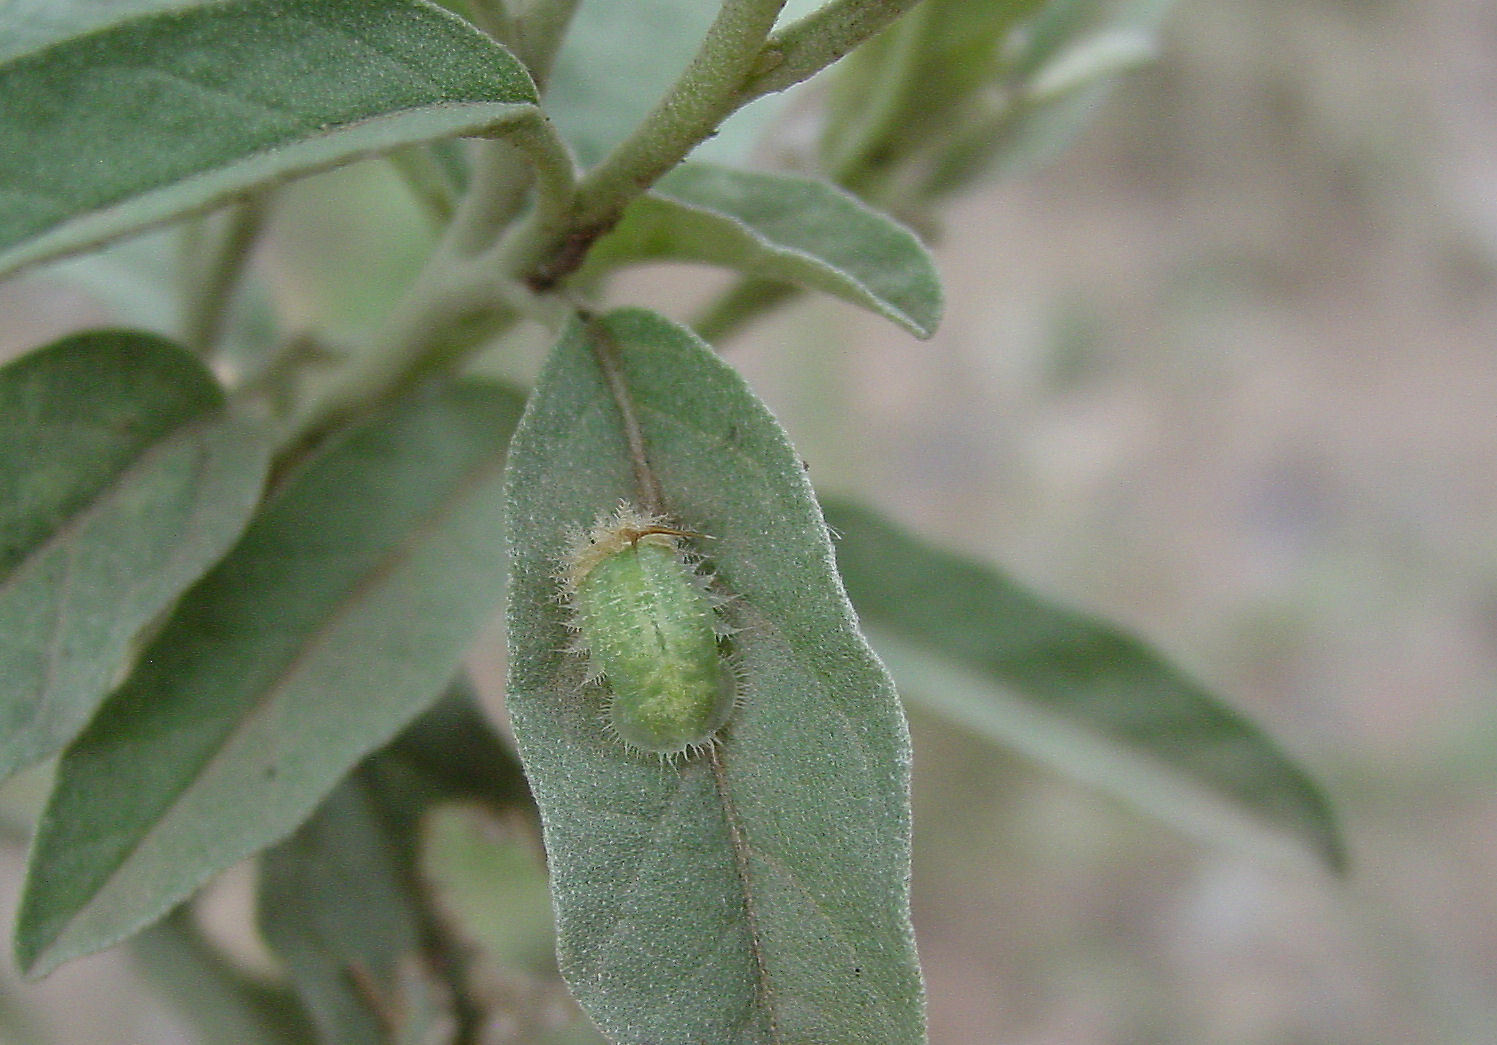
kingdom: Animalia
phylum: Arthropoda
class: Insecta
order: Coleoptera
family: Chrysomelidae
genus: Cassidini
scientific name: Cassidini
